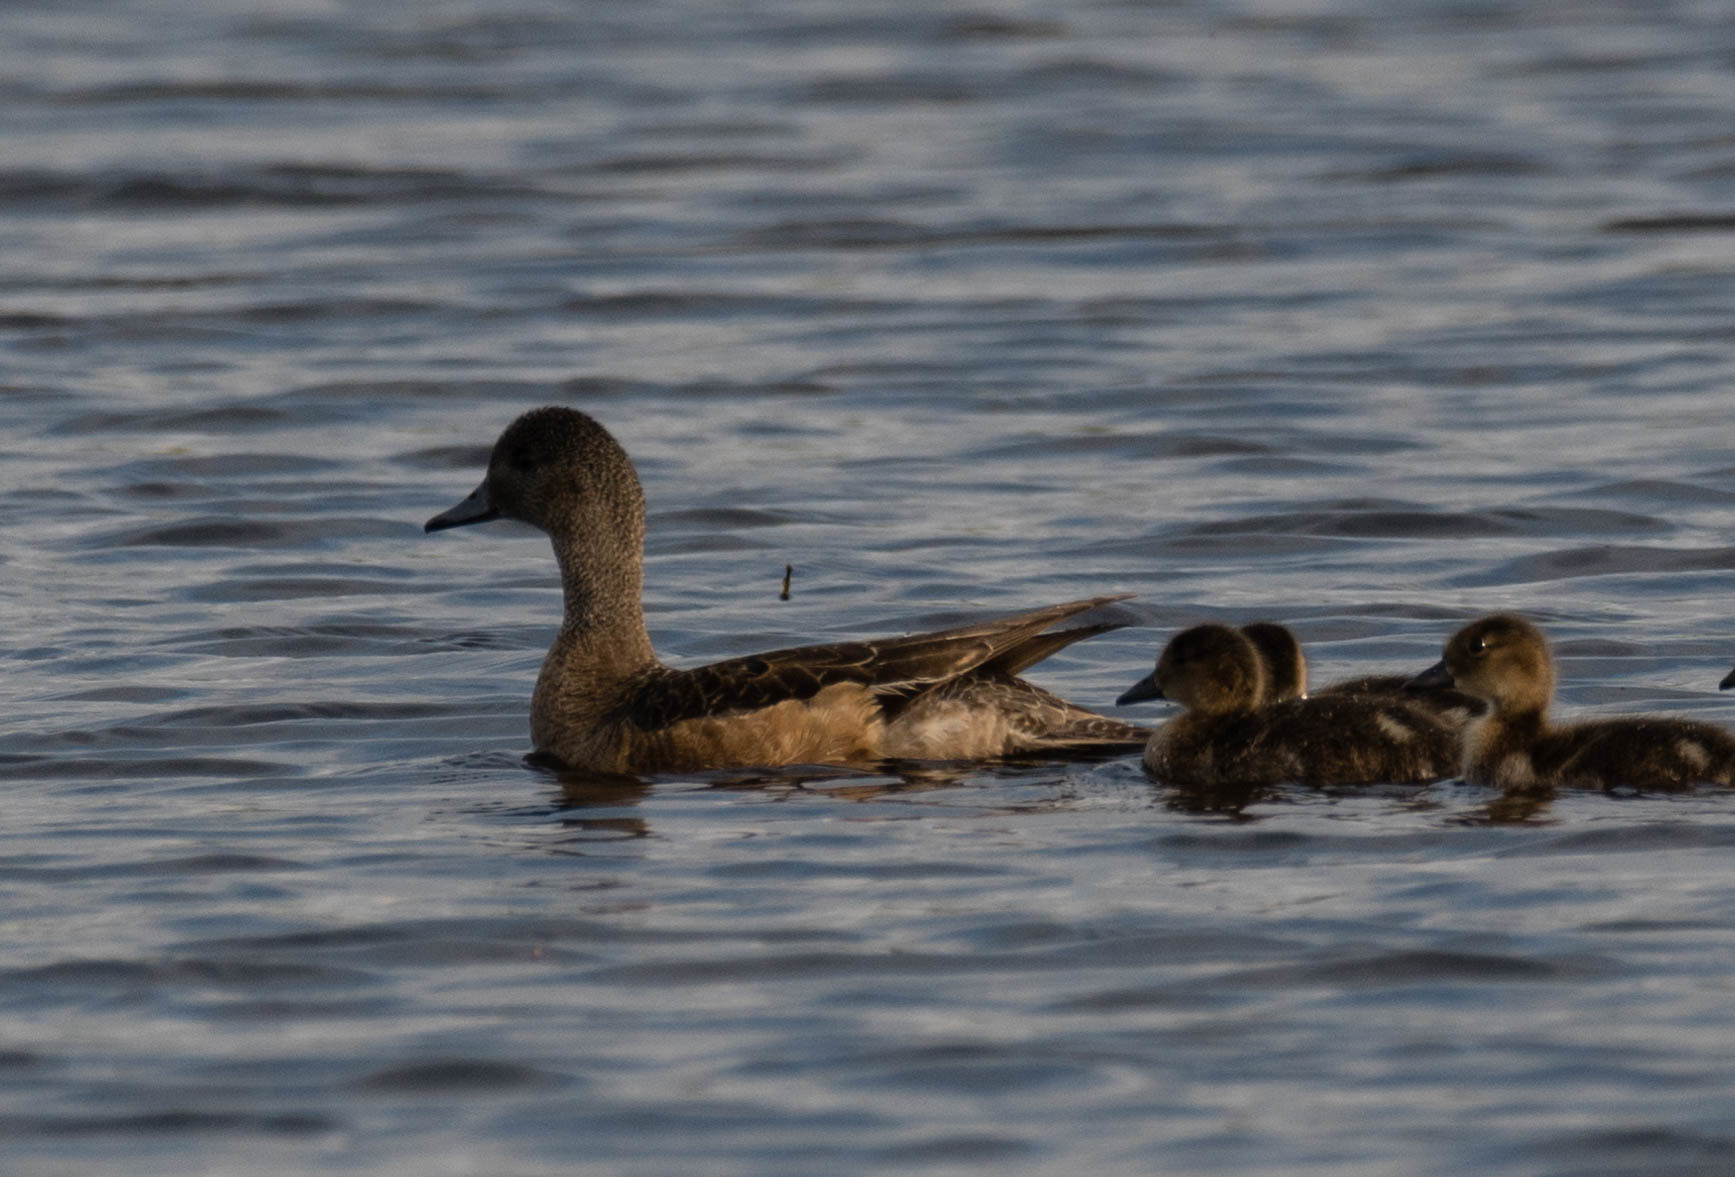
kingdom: Animalia
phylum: Chordata
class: Aves
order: Anseriformes
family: Anatidae
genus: Mareca
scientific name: Mareca americana
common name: American wigeon
